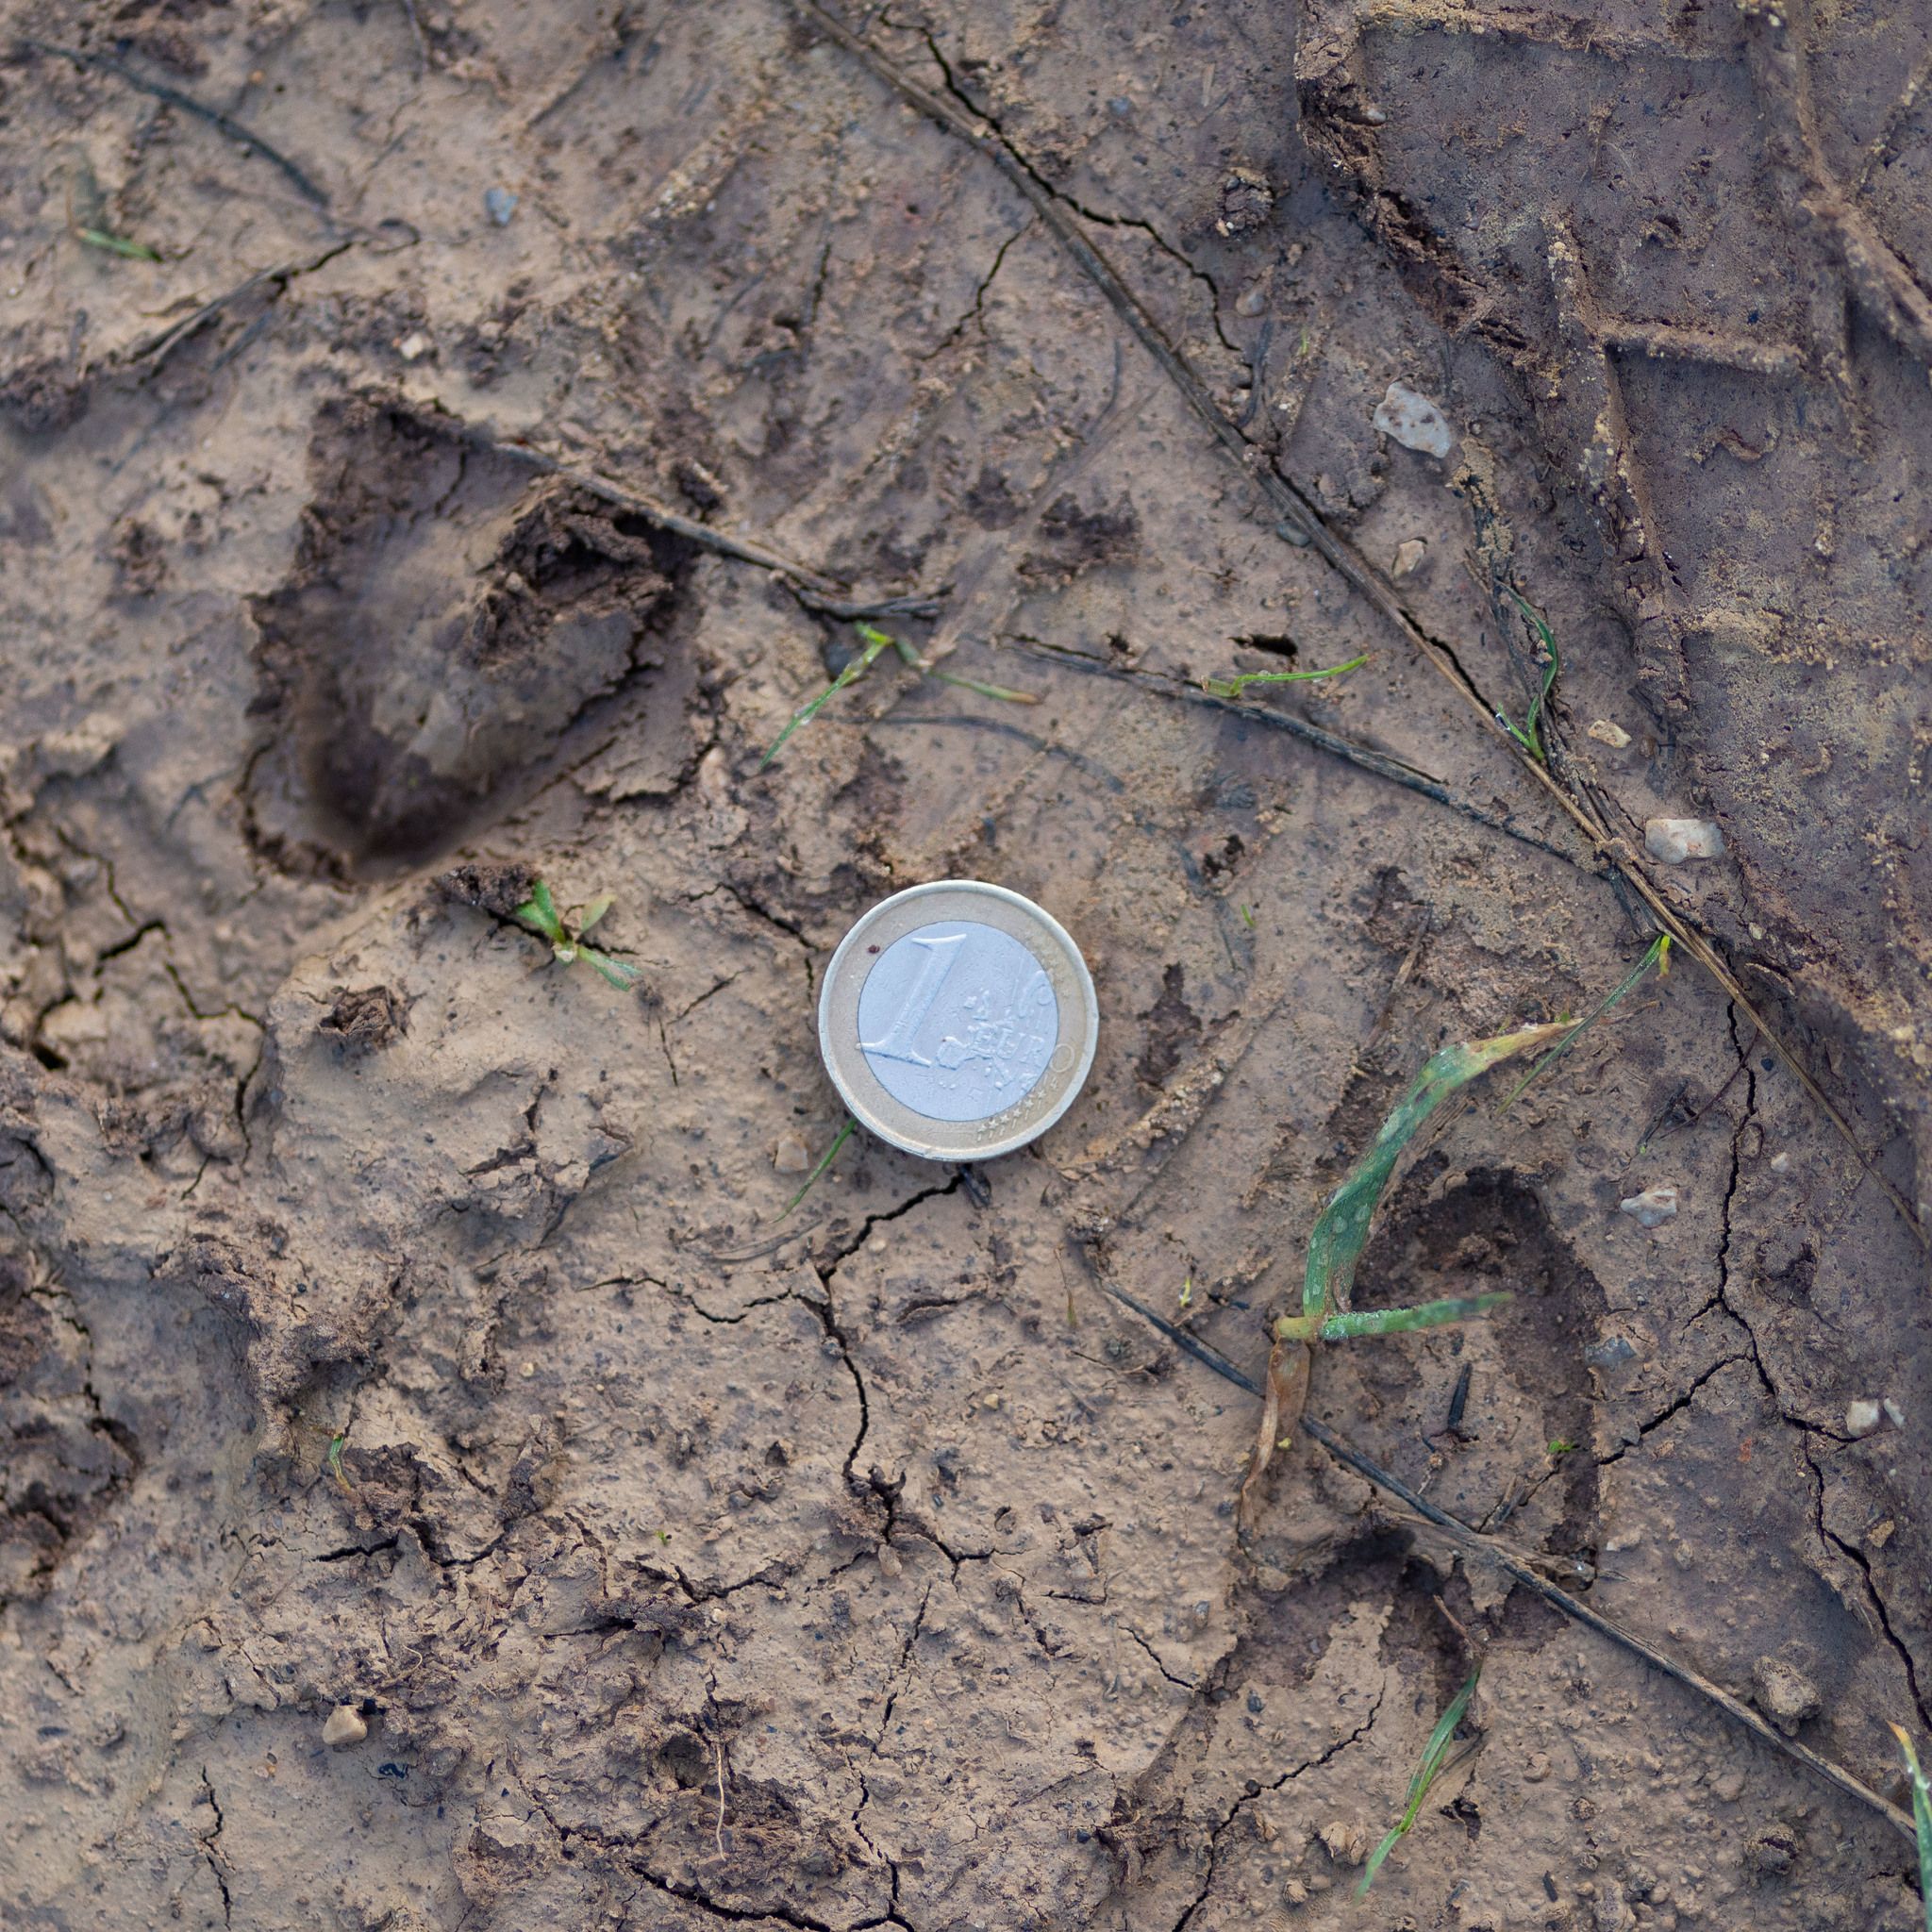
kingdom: Animalia
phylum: Chordata
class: Mammalia
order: Artiodactyla
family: Cervidae
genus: Capreolus
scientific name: Capreolus capreolus
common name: Western roe deer
